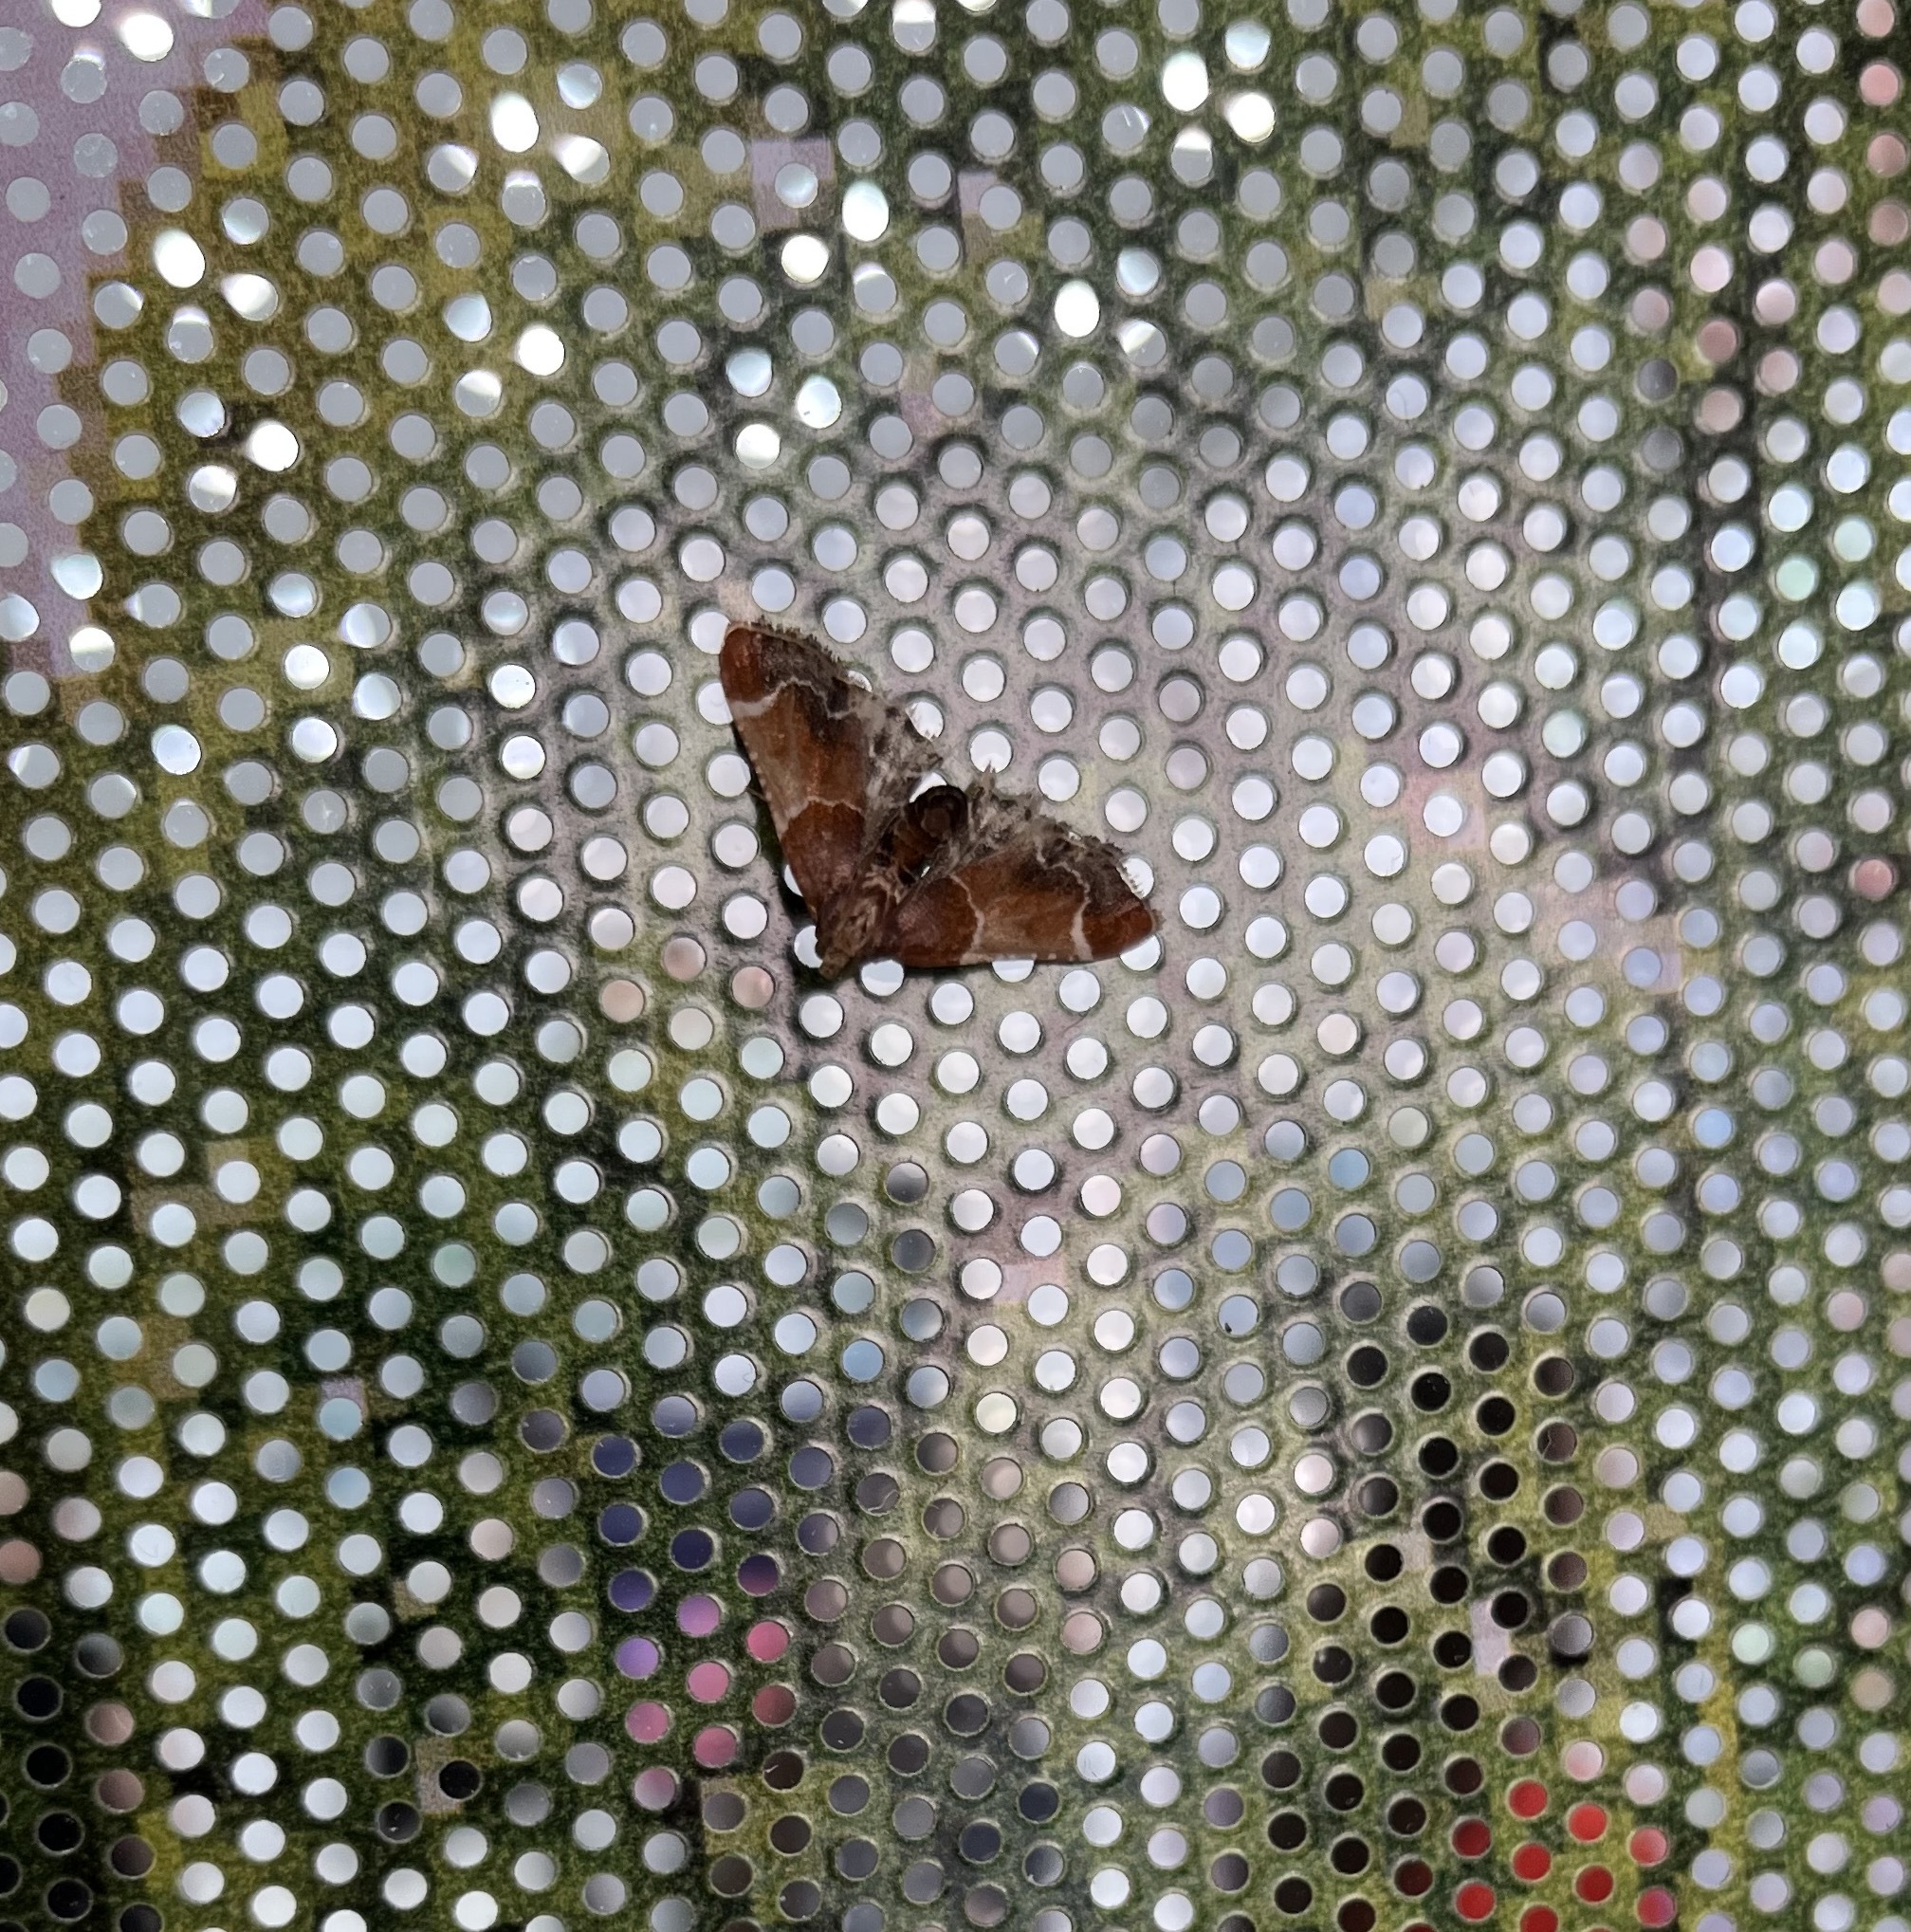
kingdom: Animalia
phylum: Arthropoda
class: Insecta
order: Lepidoptera
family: Pyralidae
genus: Pyralis
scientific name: Pyralis farinalis
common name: Meal moth
